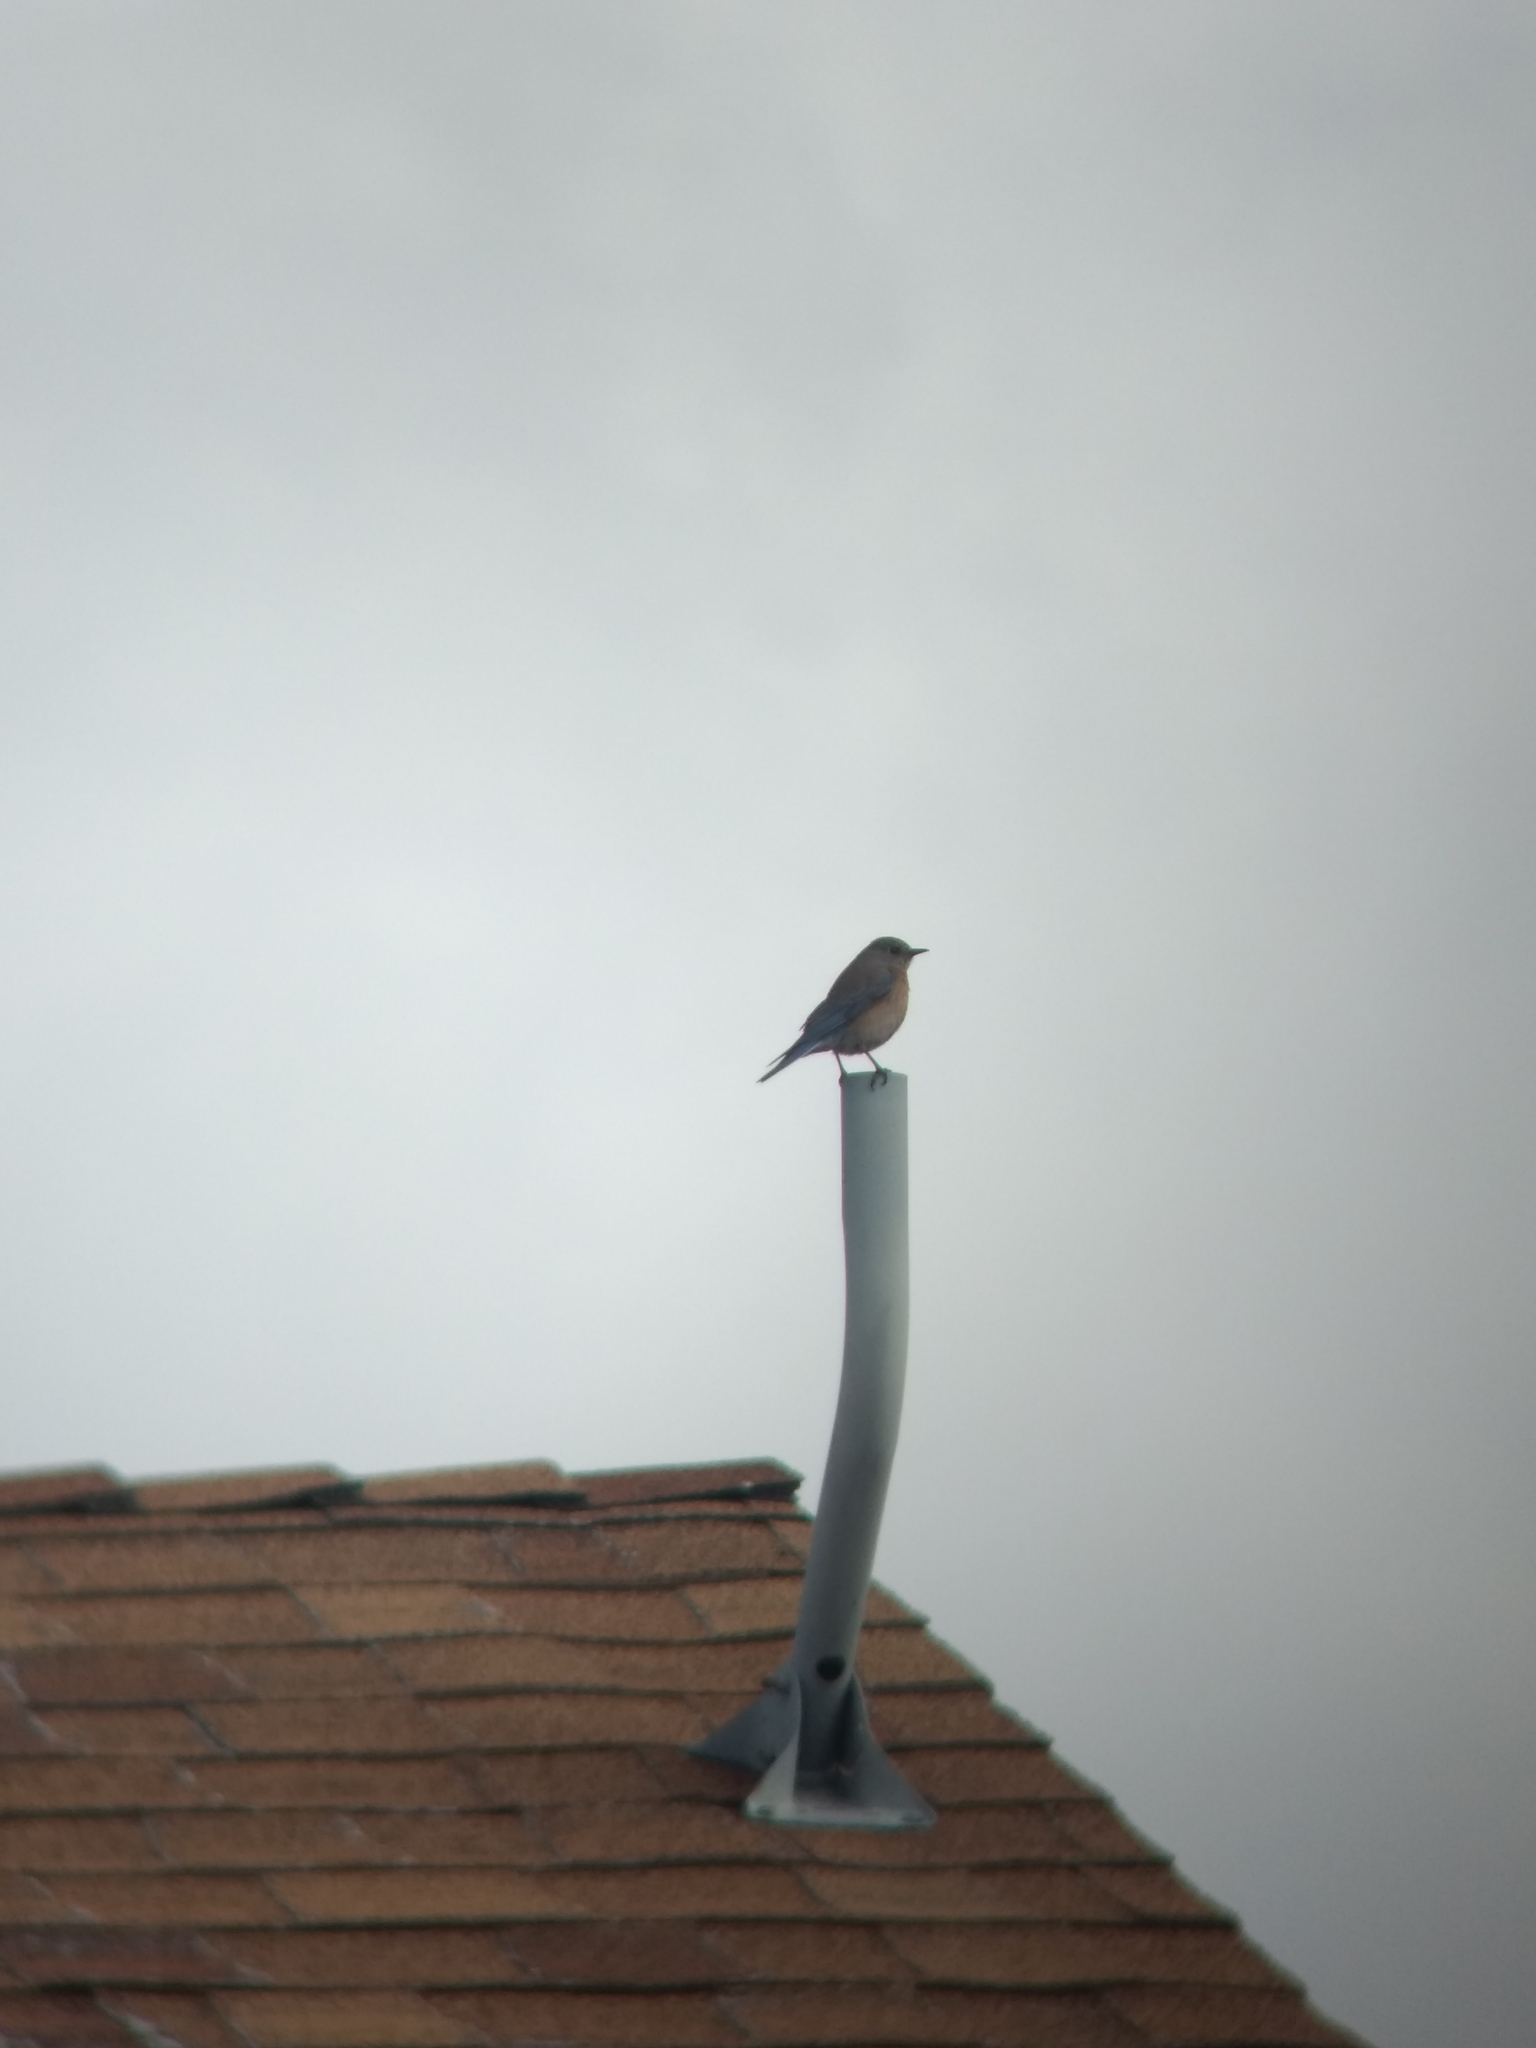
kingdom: Animalia
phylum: Chordata
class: Aves
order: Passeriformes
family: Turdidae
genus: Sialia
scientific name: Sialia mexicana
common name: Western bluebird
